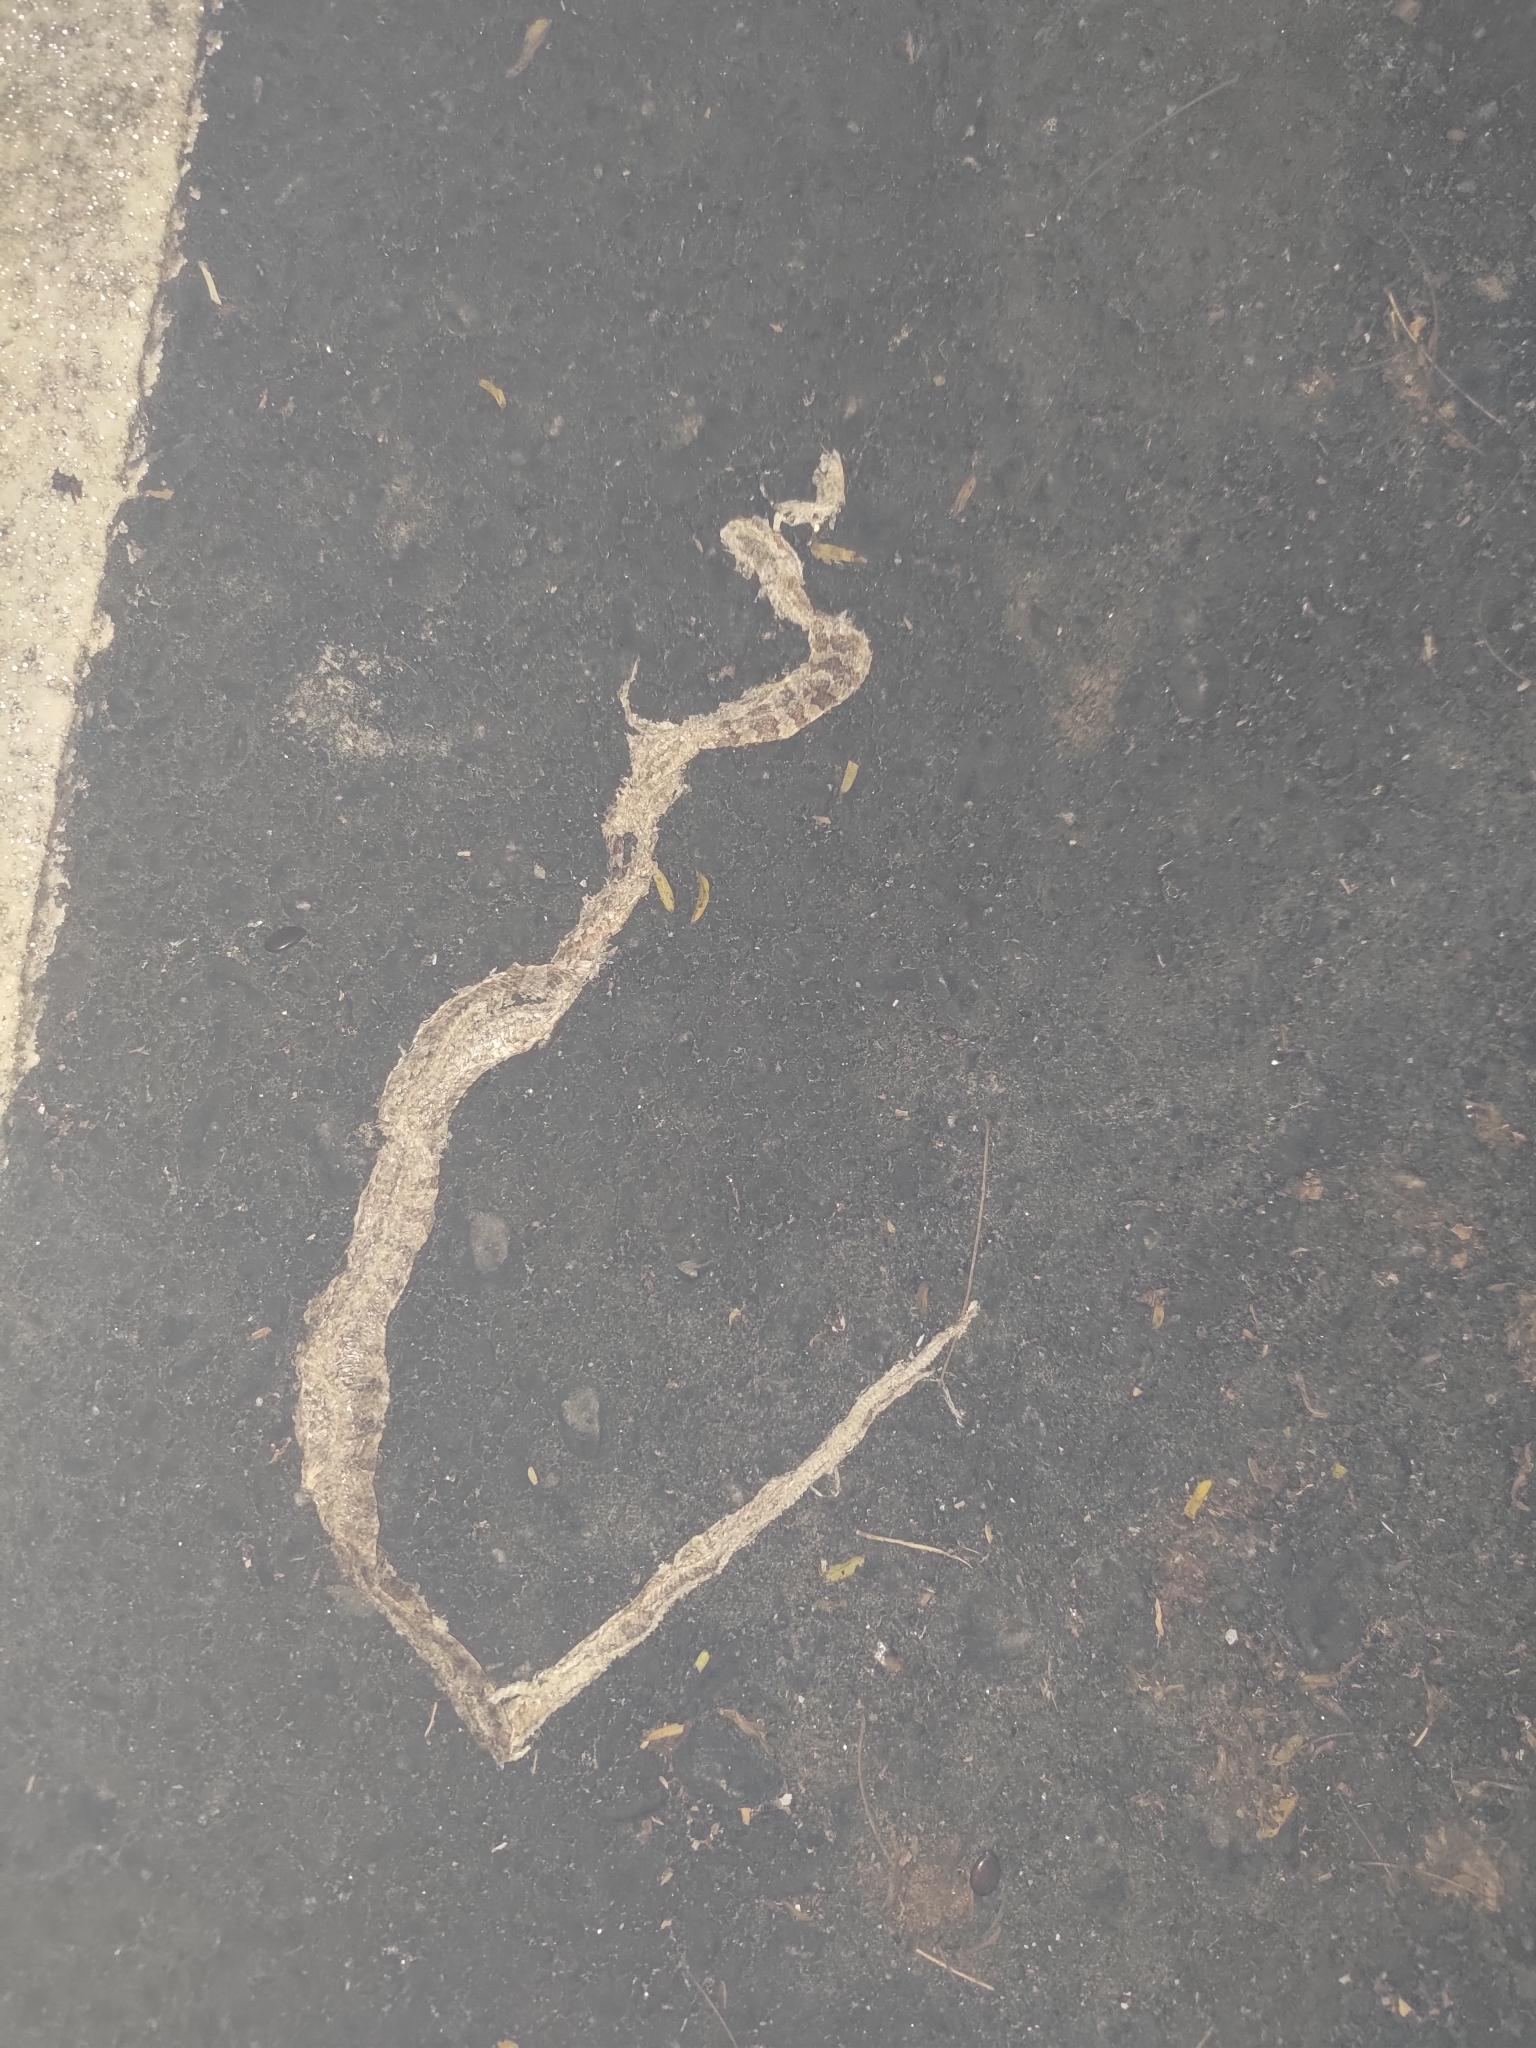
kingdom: Animalia
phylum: Chordata
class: Squamata
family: Colubridae
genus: Boiga
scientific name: Boiga kraepelini
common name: Kelung cat snake
